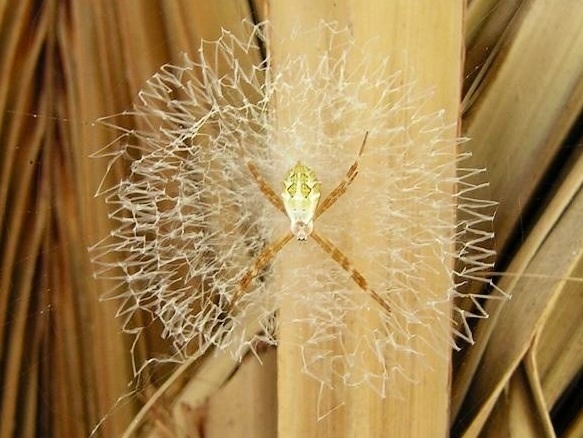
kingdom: Animalia
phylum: Arthropoda
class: Arachnida
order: Araneae
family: Araneidae
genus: Argiope
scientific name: Argiope
